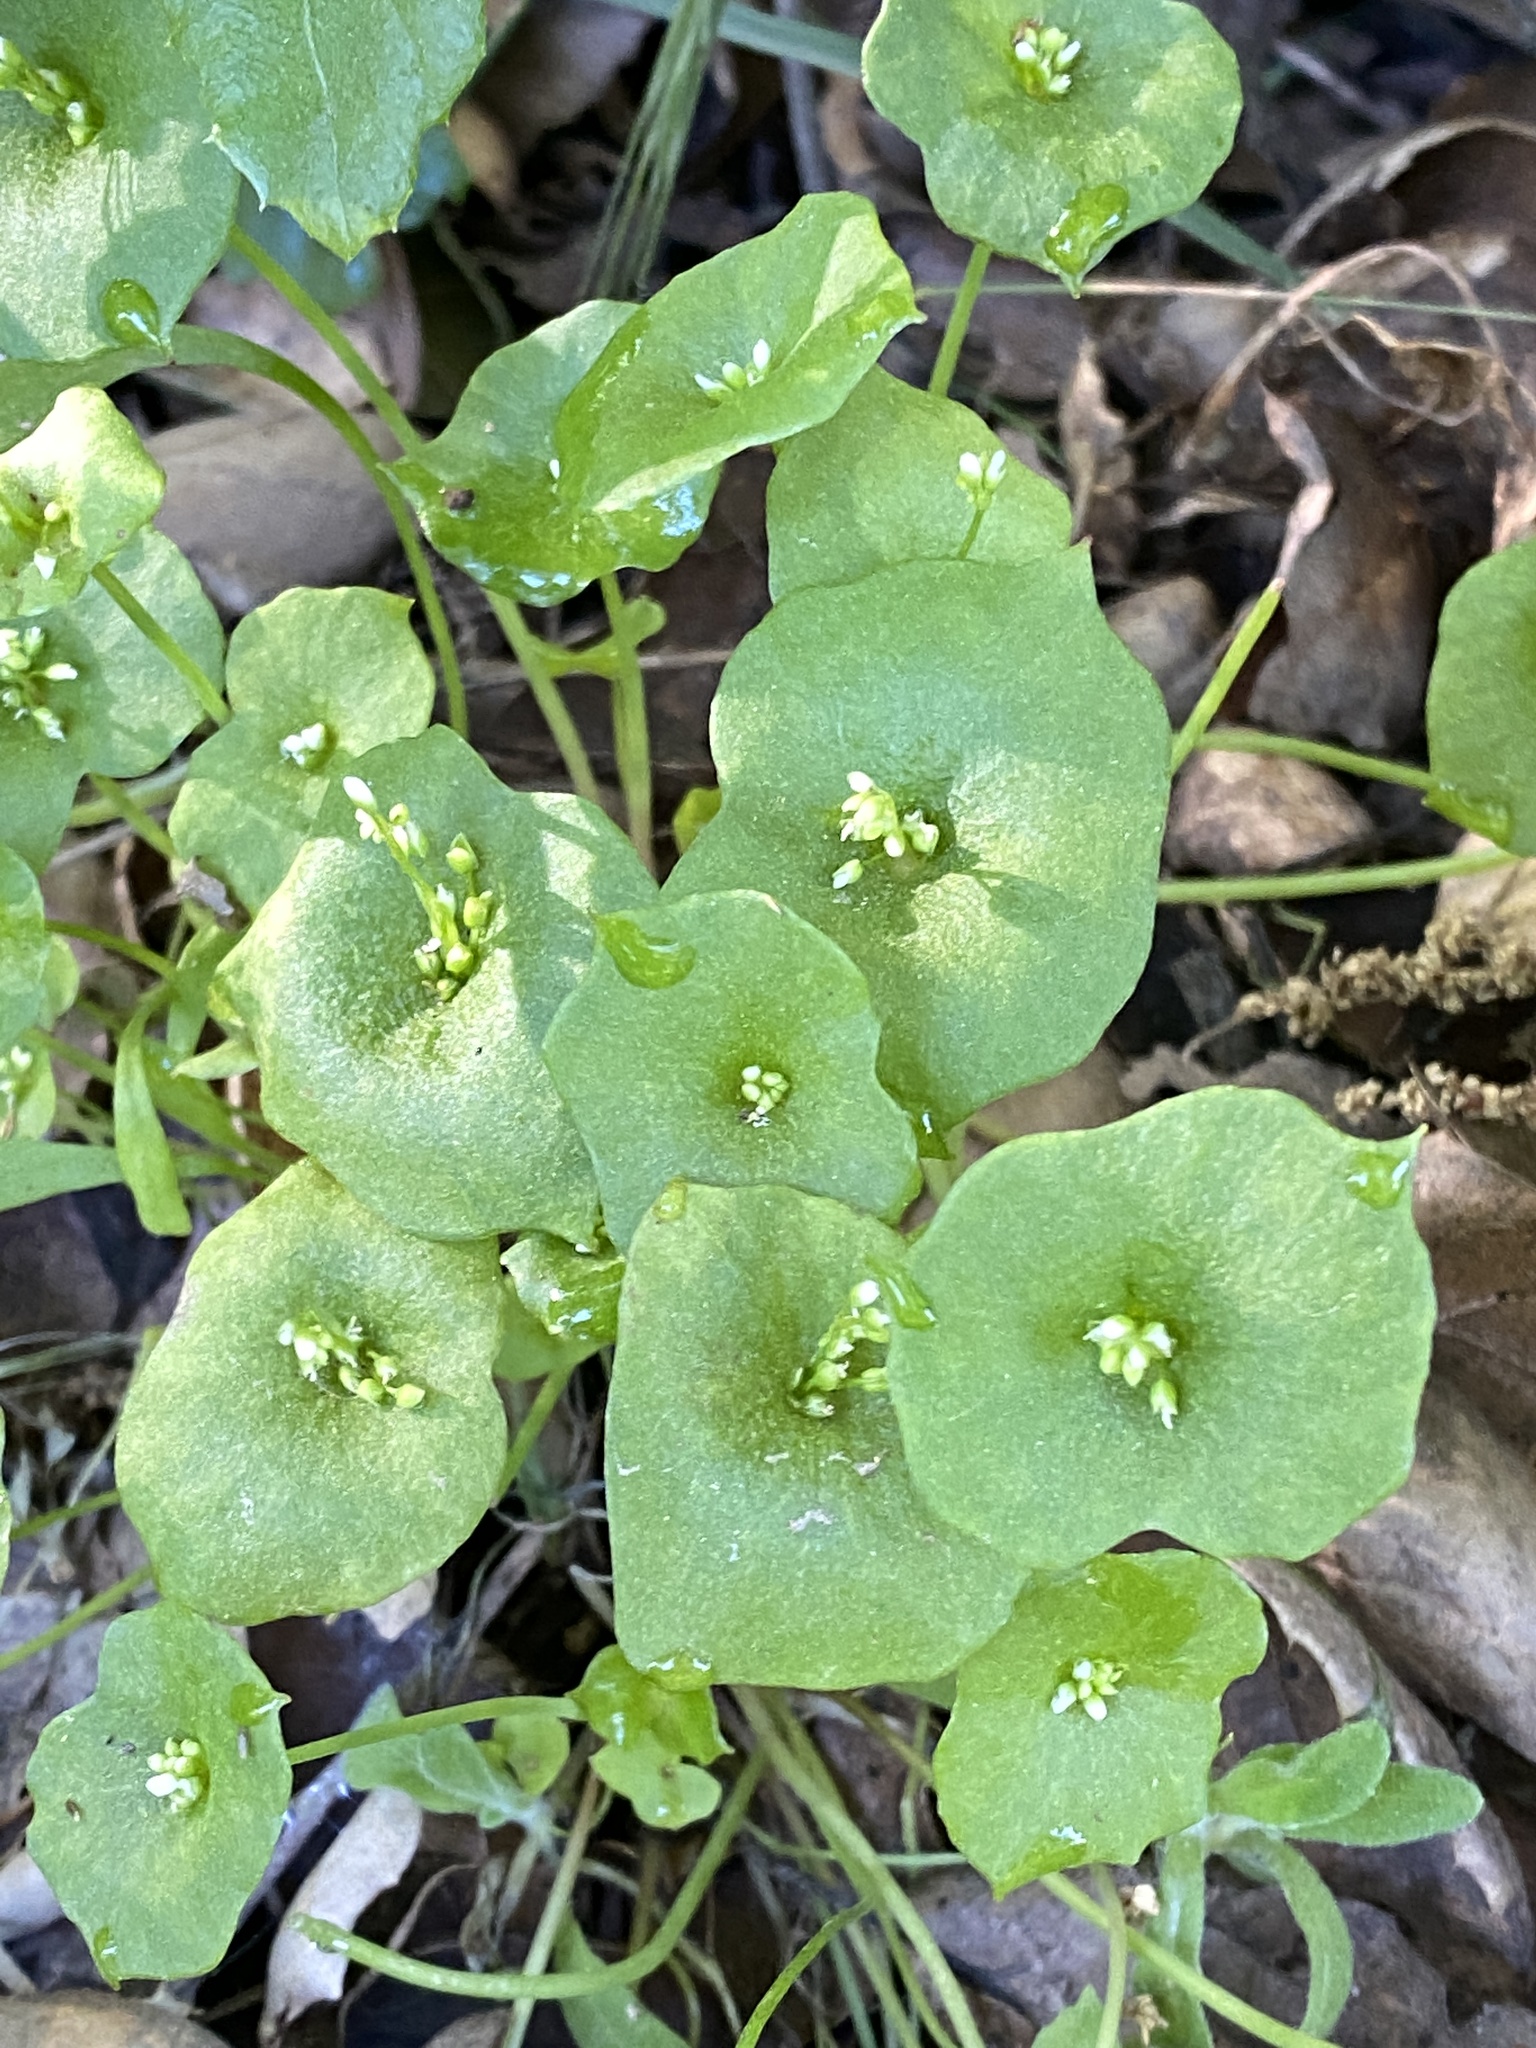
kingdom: Plantae
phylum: Tracheophyta
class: Magnoliopsida
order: Caryophyllales
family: Montiaceae
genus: Claytonia
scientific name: Claytonia perfoliata
